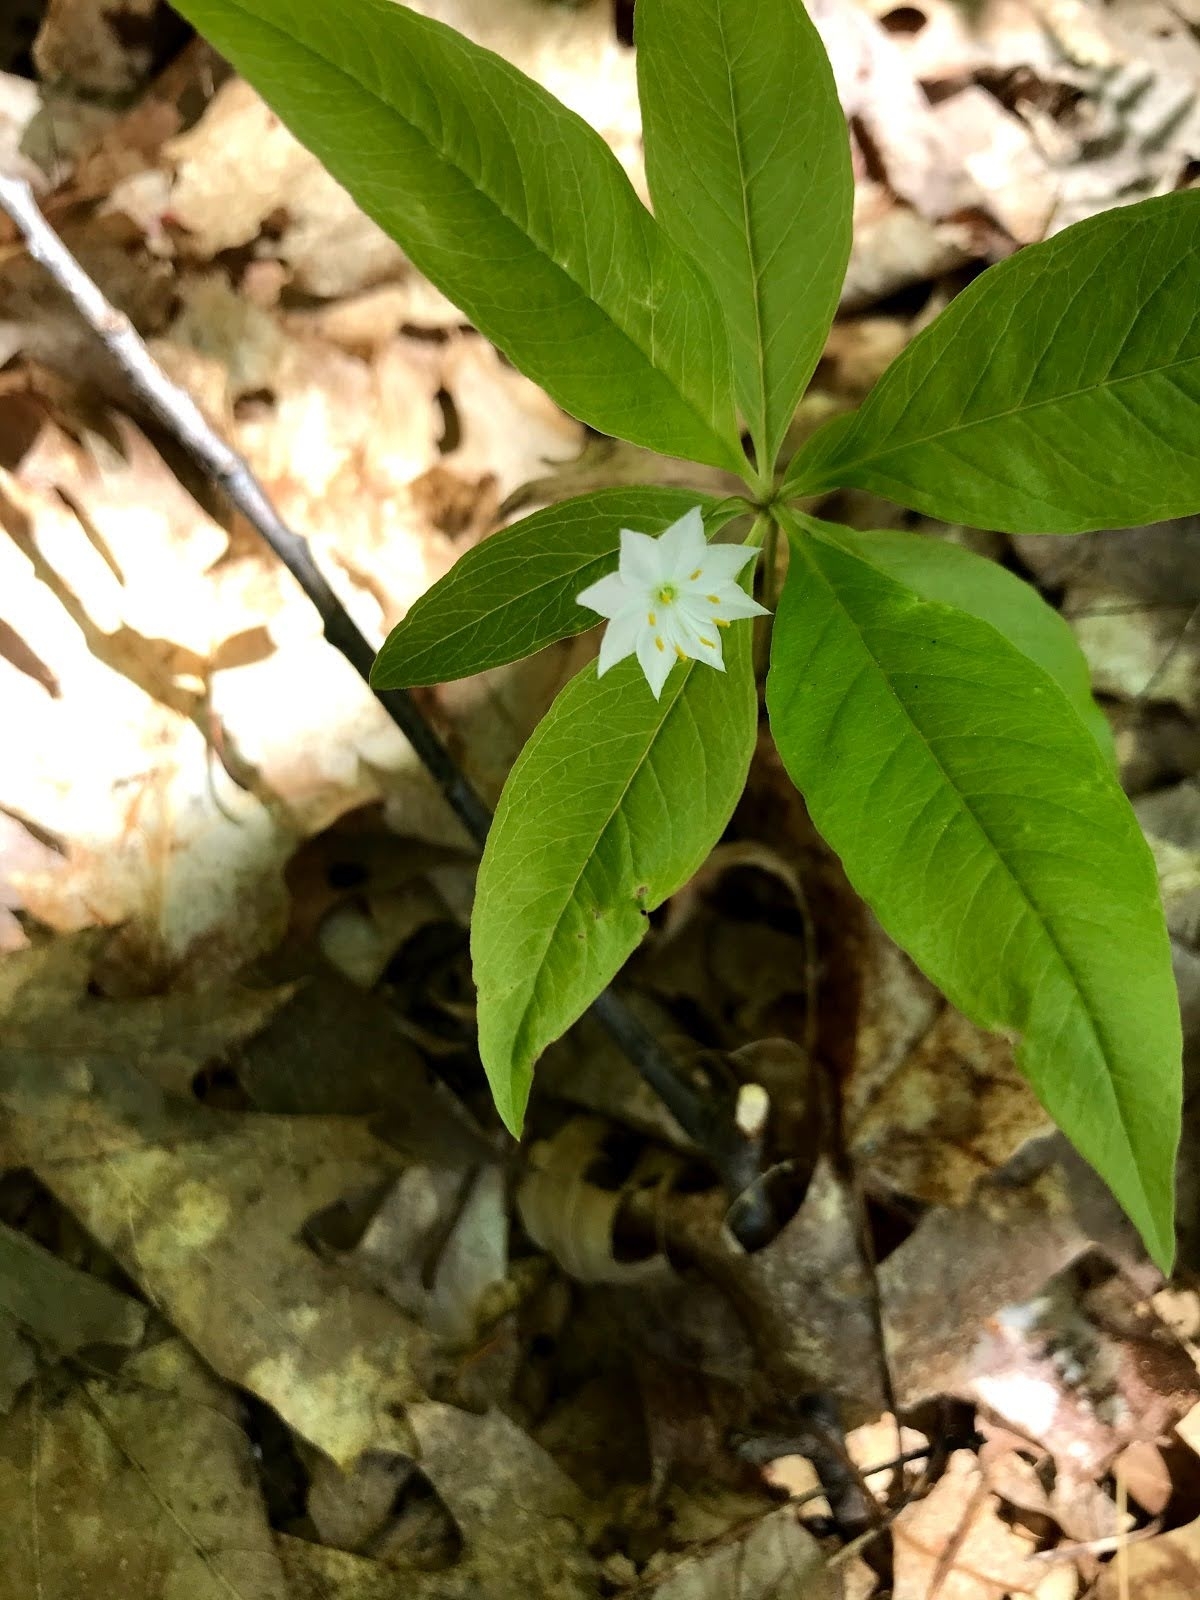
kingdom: Plantae
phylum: Tracheophyta
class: Magnoliopsida
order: Ericales
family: Primulaceae
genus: Lysimachia
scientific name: Lysimachia borealis
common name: American starflower
